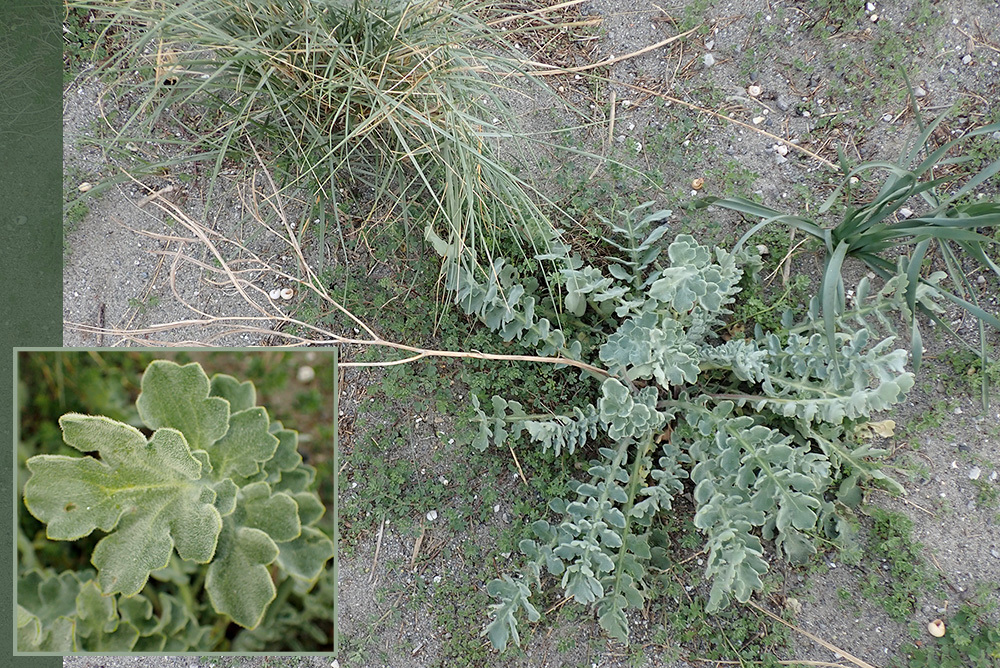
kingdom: Plantae
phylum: Tracheophyta
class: Magnoliopsida
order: Ranunculales
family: Papaveraceae
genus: Glaucium
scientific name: Glaucium flavum
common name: Yellow horned-poppy
